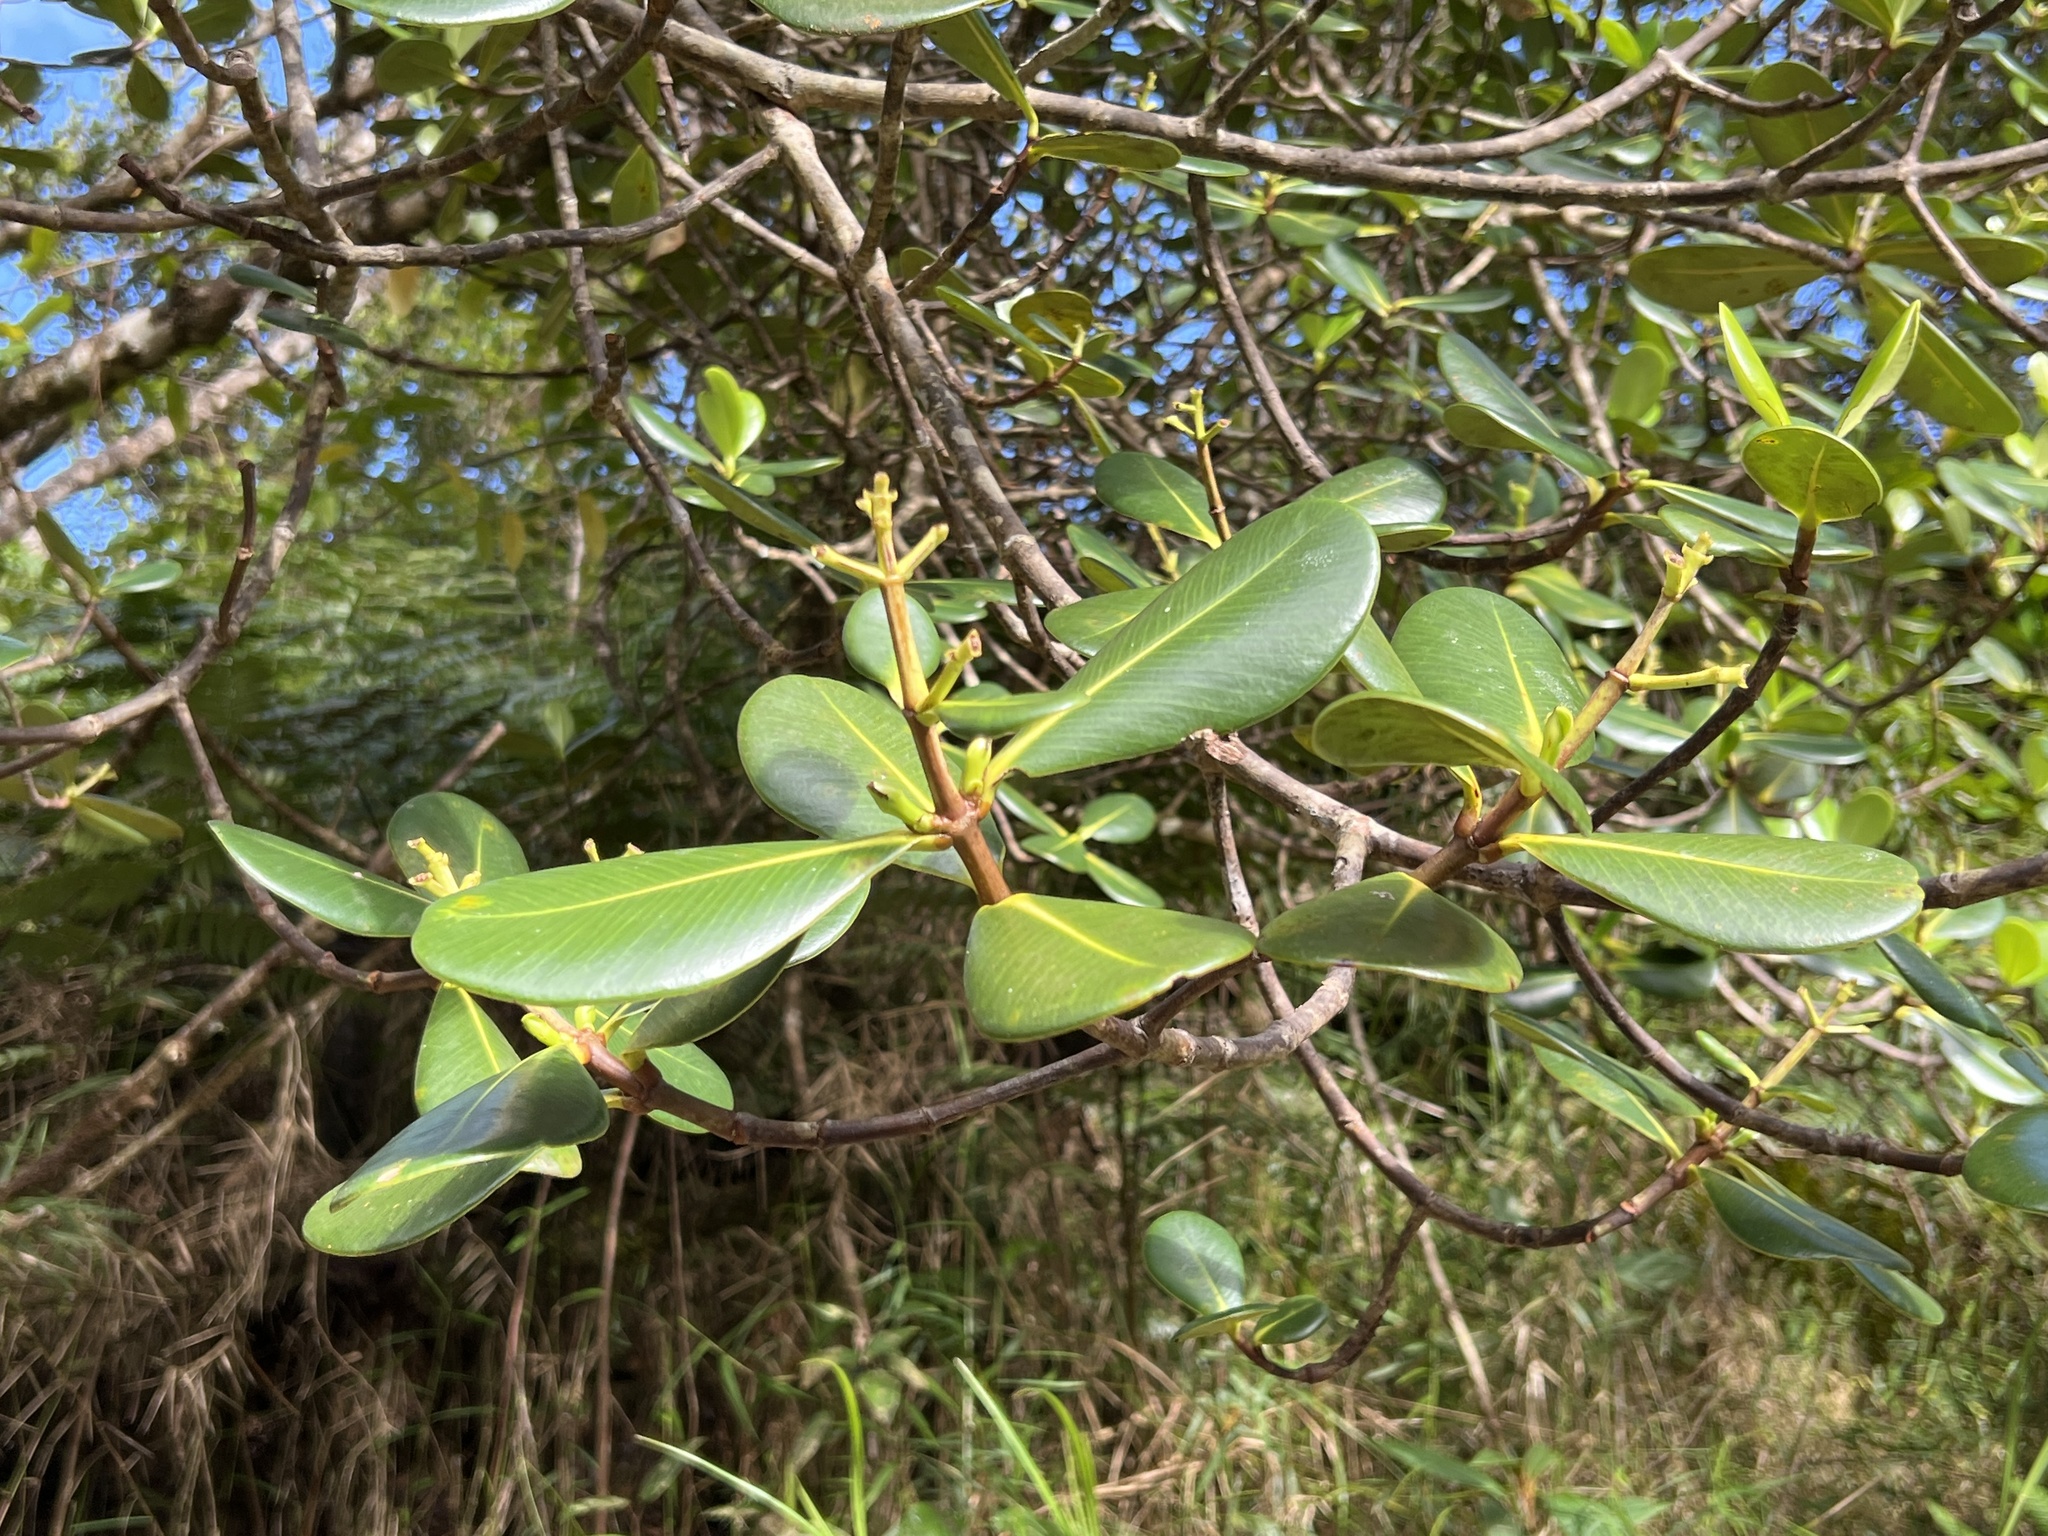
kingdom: Plantae
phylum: Tracheophyta
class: Magnoliopsida
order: Malpighiales
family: Clusiaceae
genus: Clusia
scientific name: Clusia clusioides
